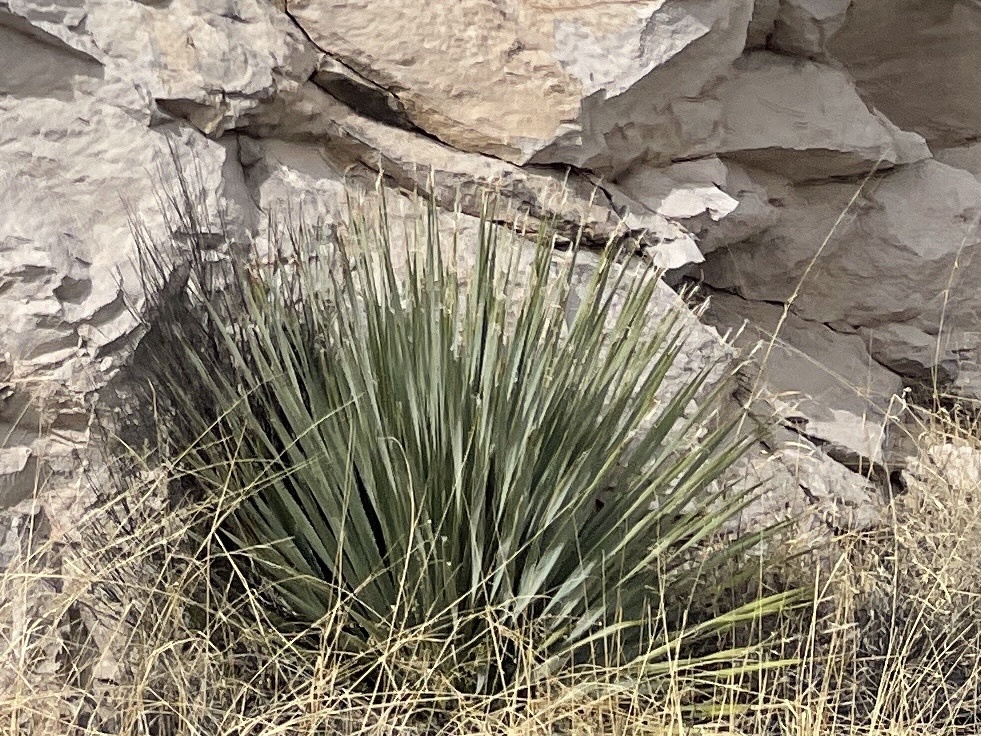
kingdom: Plantae
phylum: Tracheophyta
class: Liliopsida
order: Asparagales
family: Asparagaceae
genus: Dasylirion
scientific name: Dasylirion wheeleri
